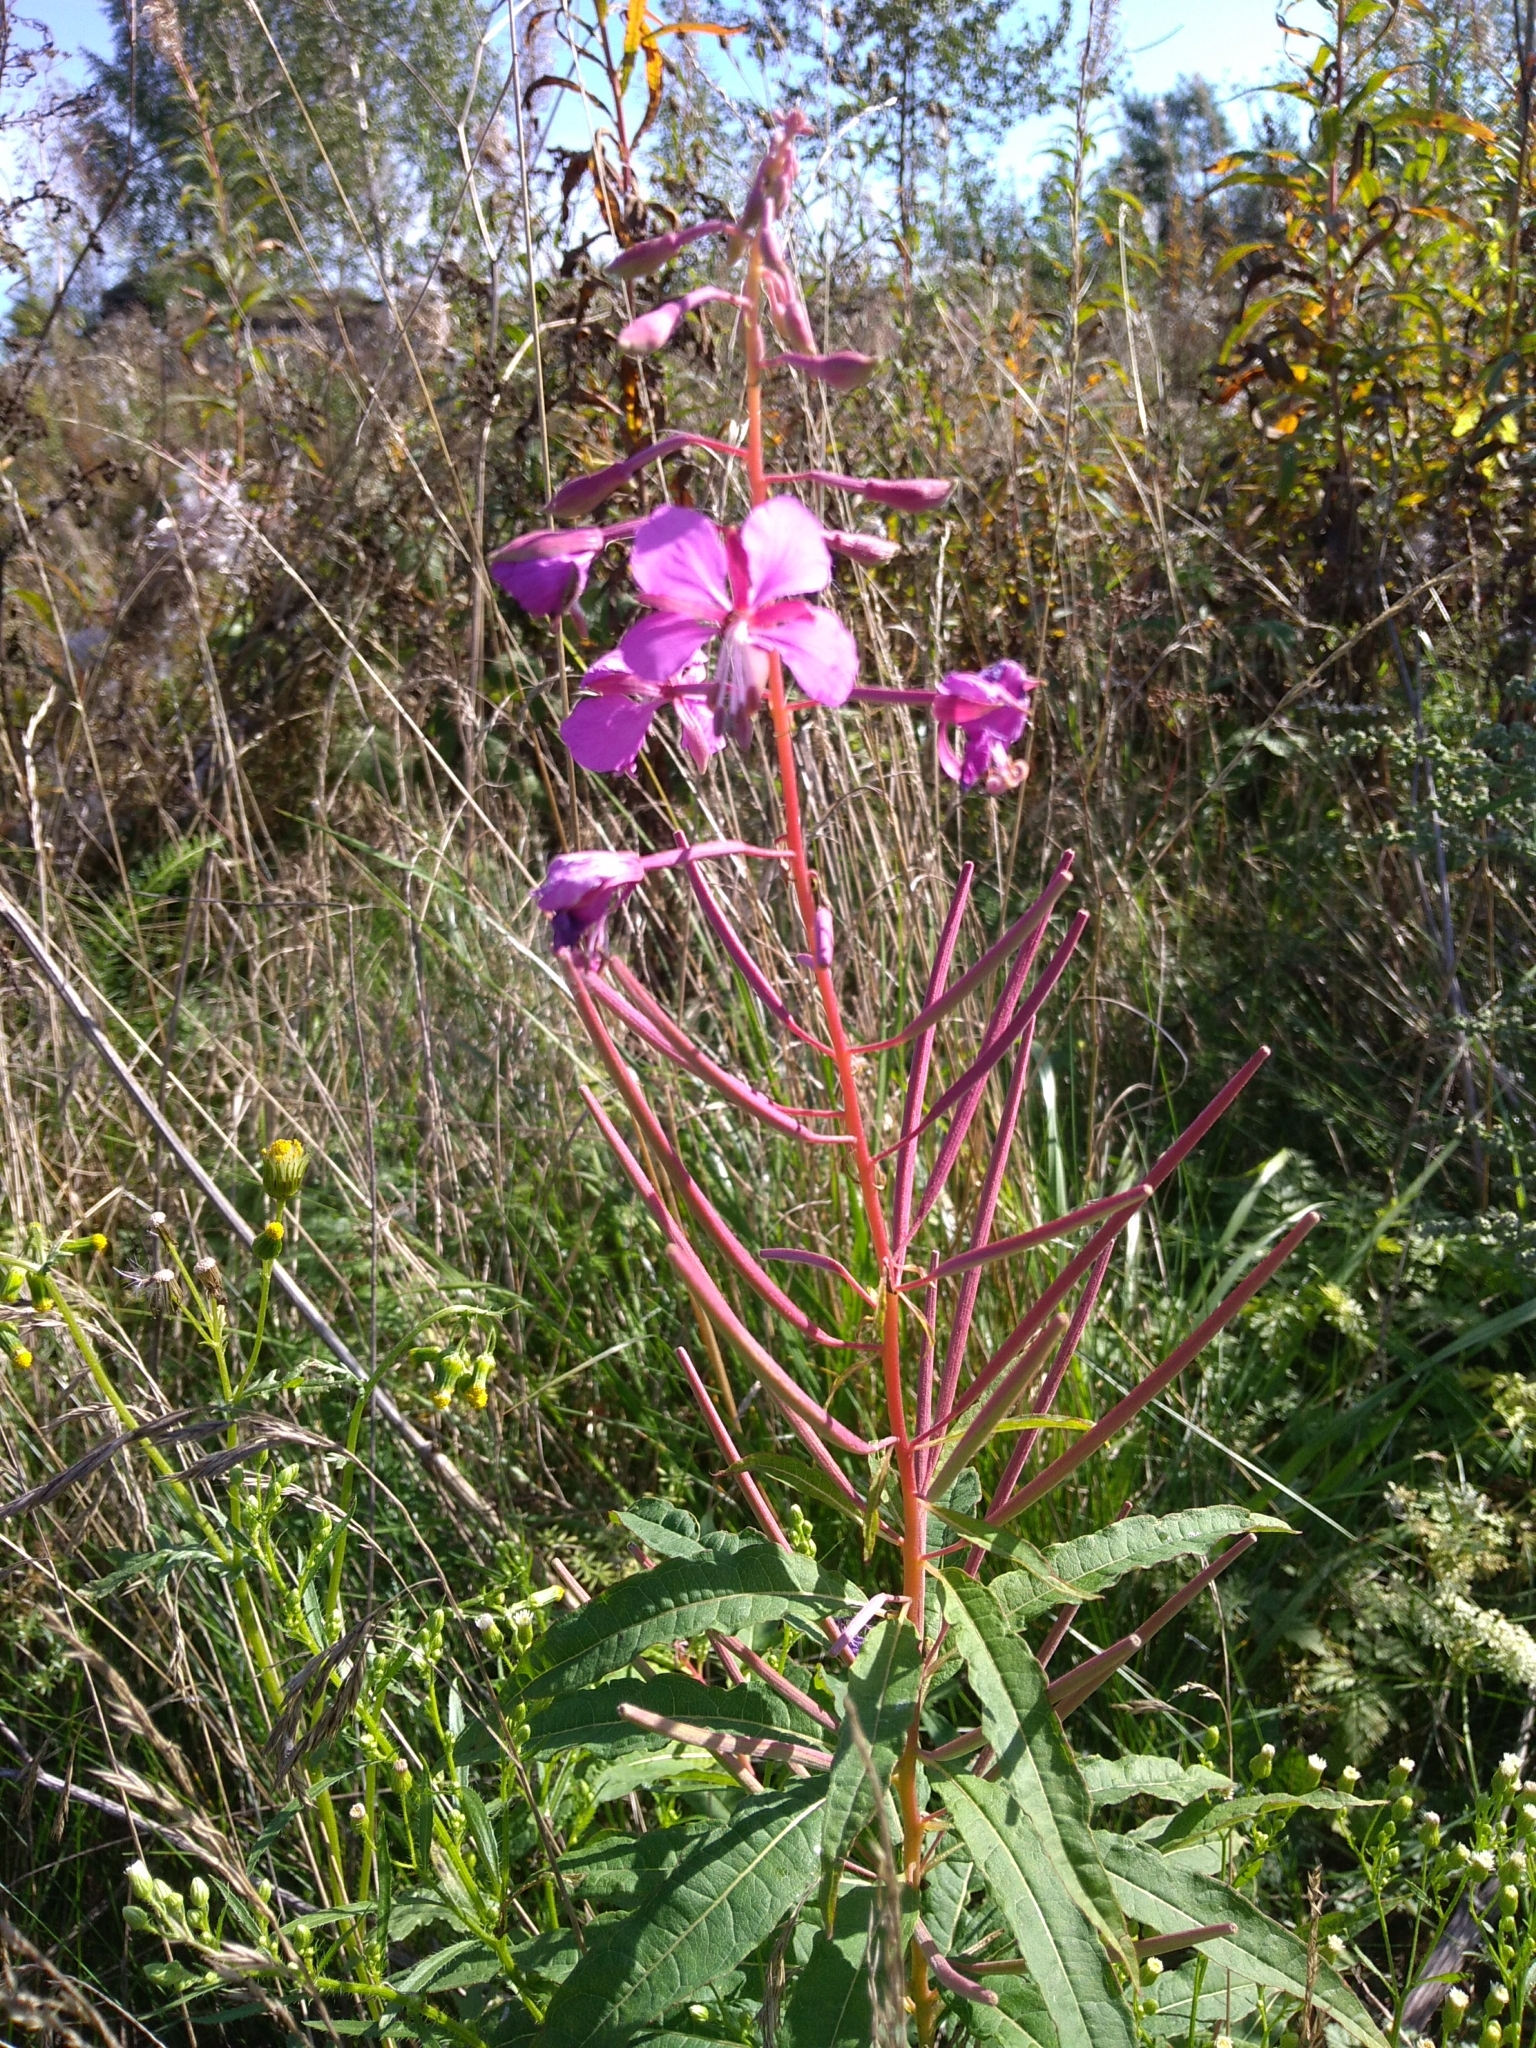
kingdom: Plantae
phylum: Tracheophyta
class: Magnoliopsida
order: Myrtales
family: Onagraceae
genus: Chamaenerion
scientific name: Chamaenerion angustifolium
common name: Fireweed
